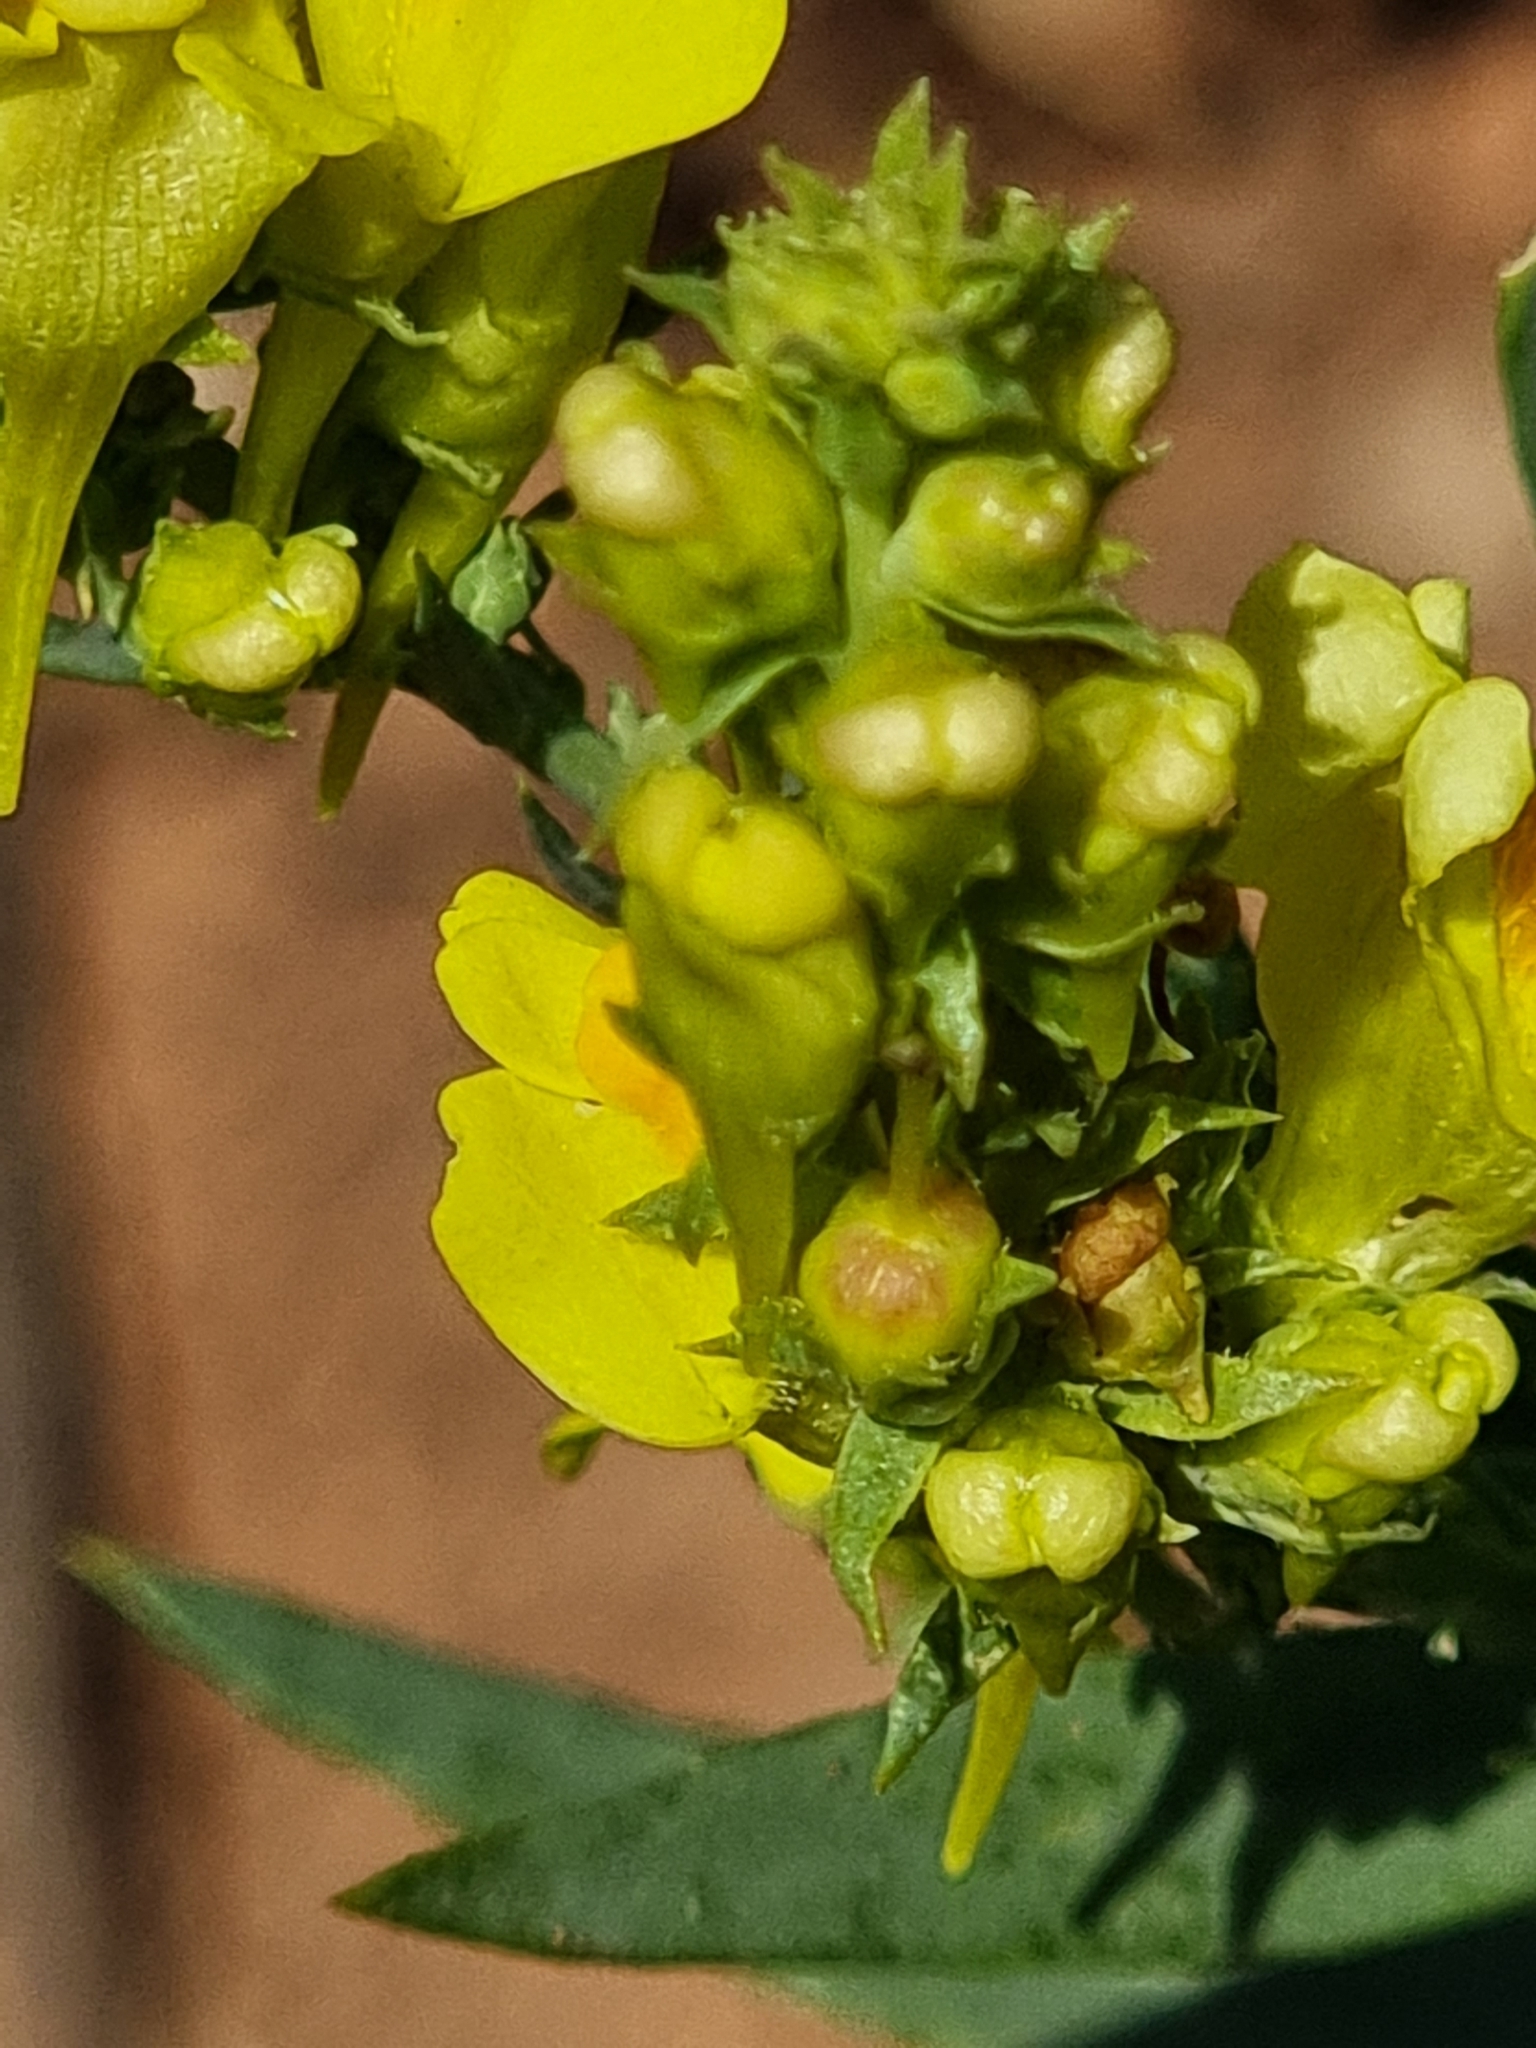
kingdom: Plantae
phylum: Tracheophyta
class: Magnoliopsida
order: Lamiales
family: Plantaginaceae
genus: Linaria
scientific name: Linaria genistifolia
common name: Broomleaf toadflax
